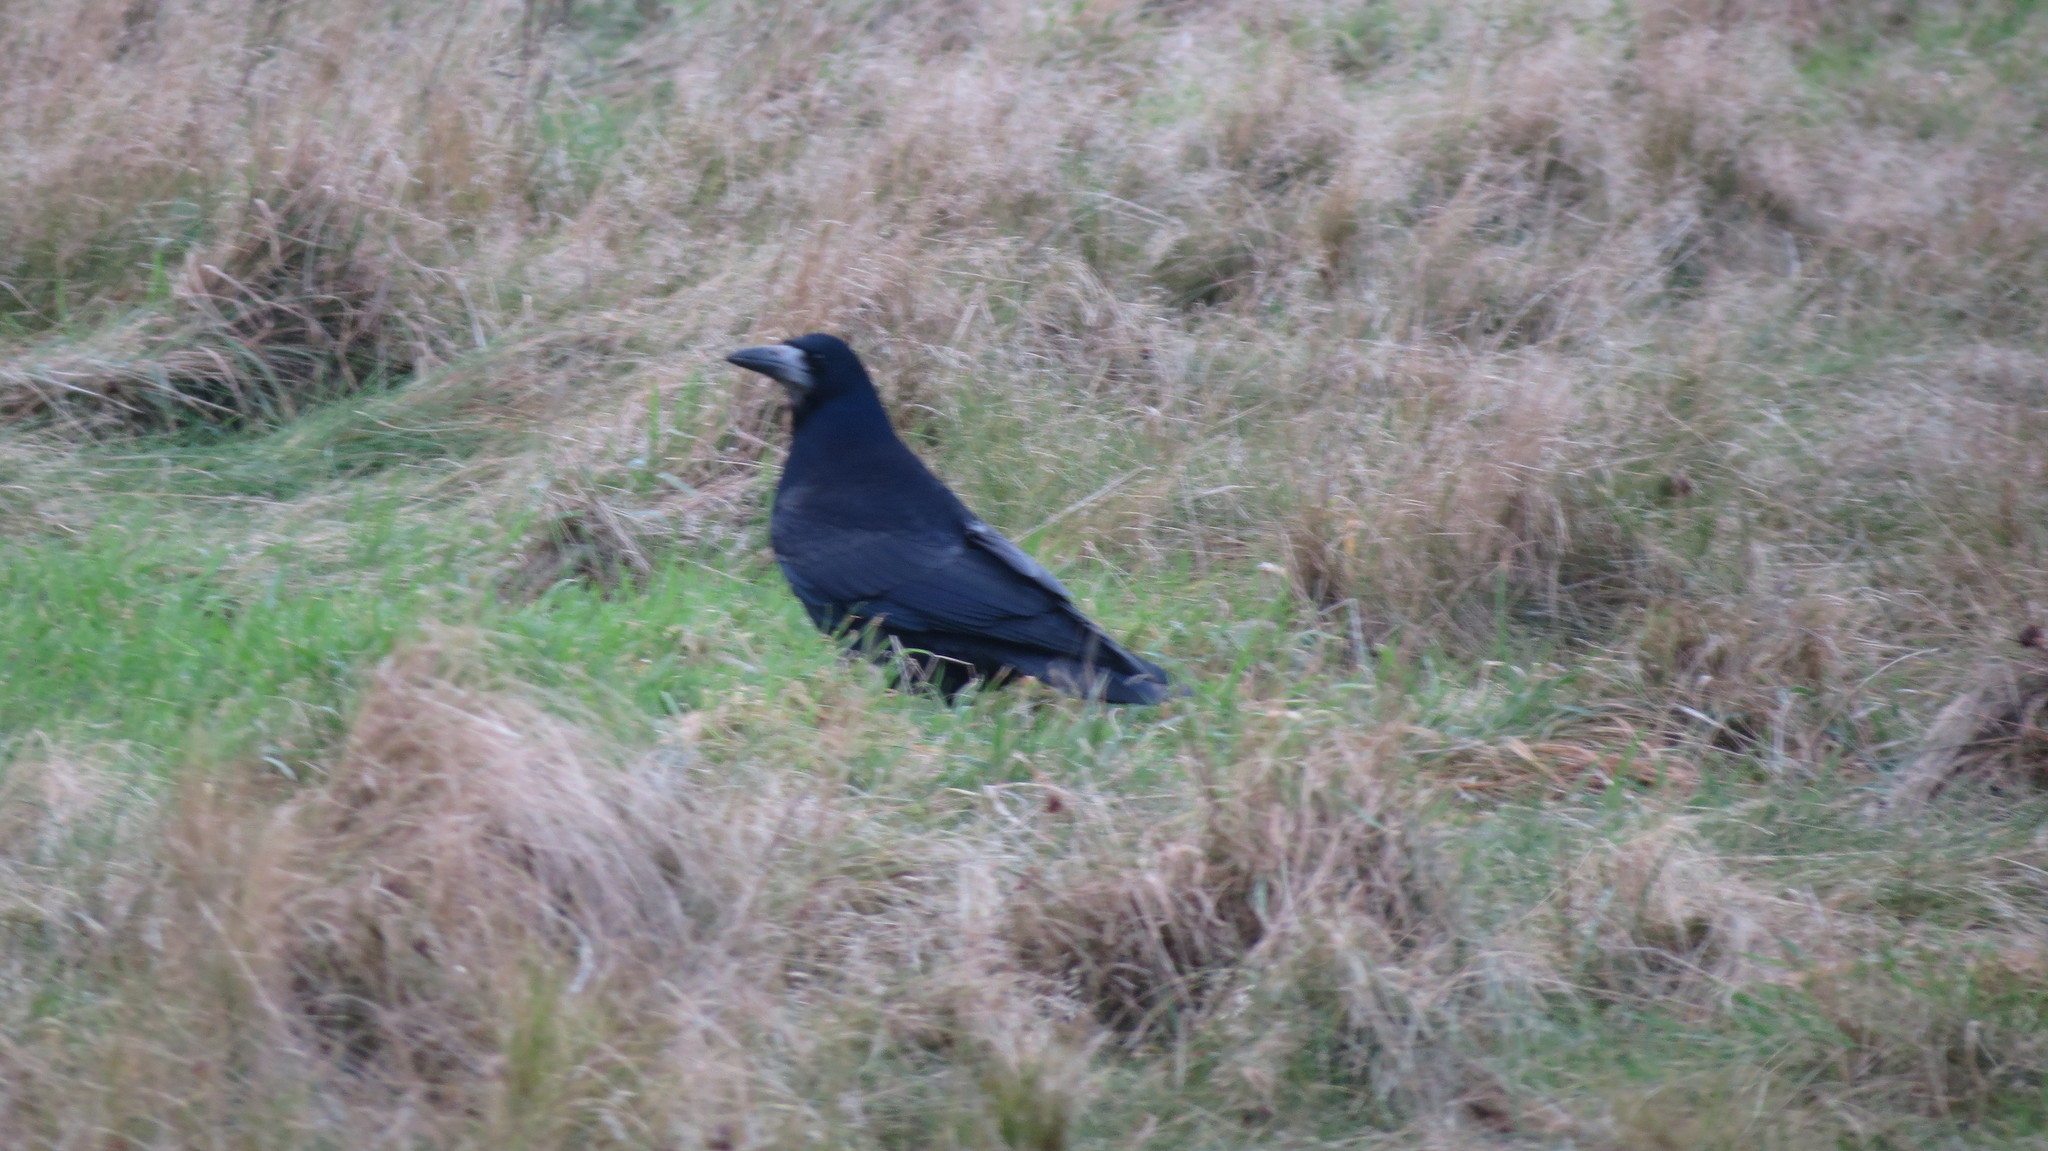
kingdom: Animalia
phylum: Chordata
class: Aves
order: Passeriformes
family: Corvidae
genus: Corvus
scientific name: Corvus frugilegus
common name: Rook
